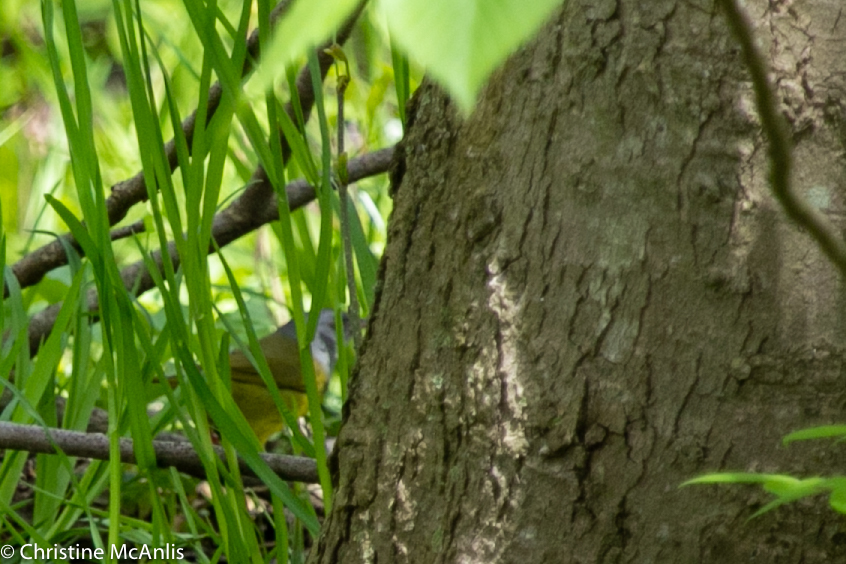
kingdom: Animalia
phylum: Chordata
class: Aves
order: Passeriformes
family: Parulidae
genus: Geothlypis
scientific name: Geothlypis philadelphia
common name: Mourning warbler
